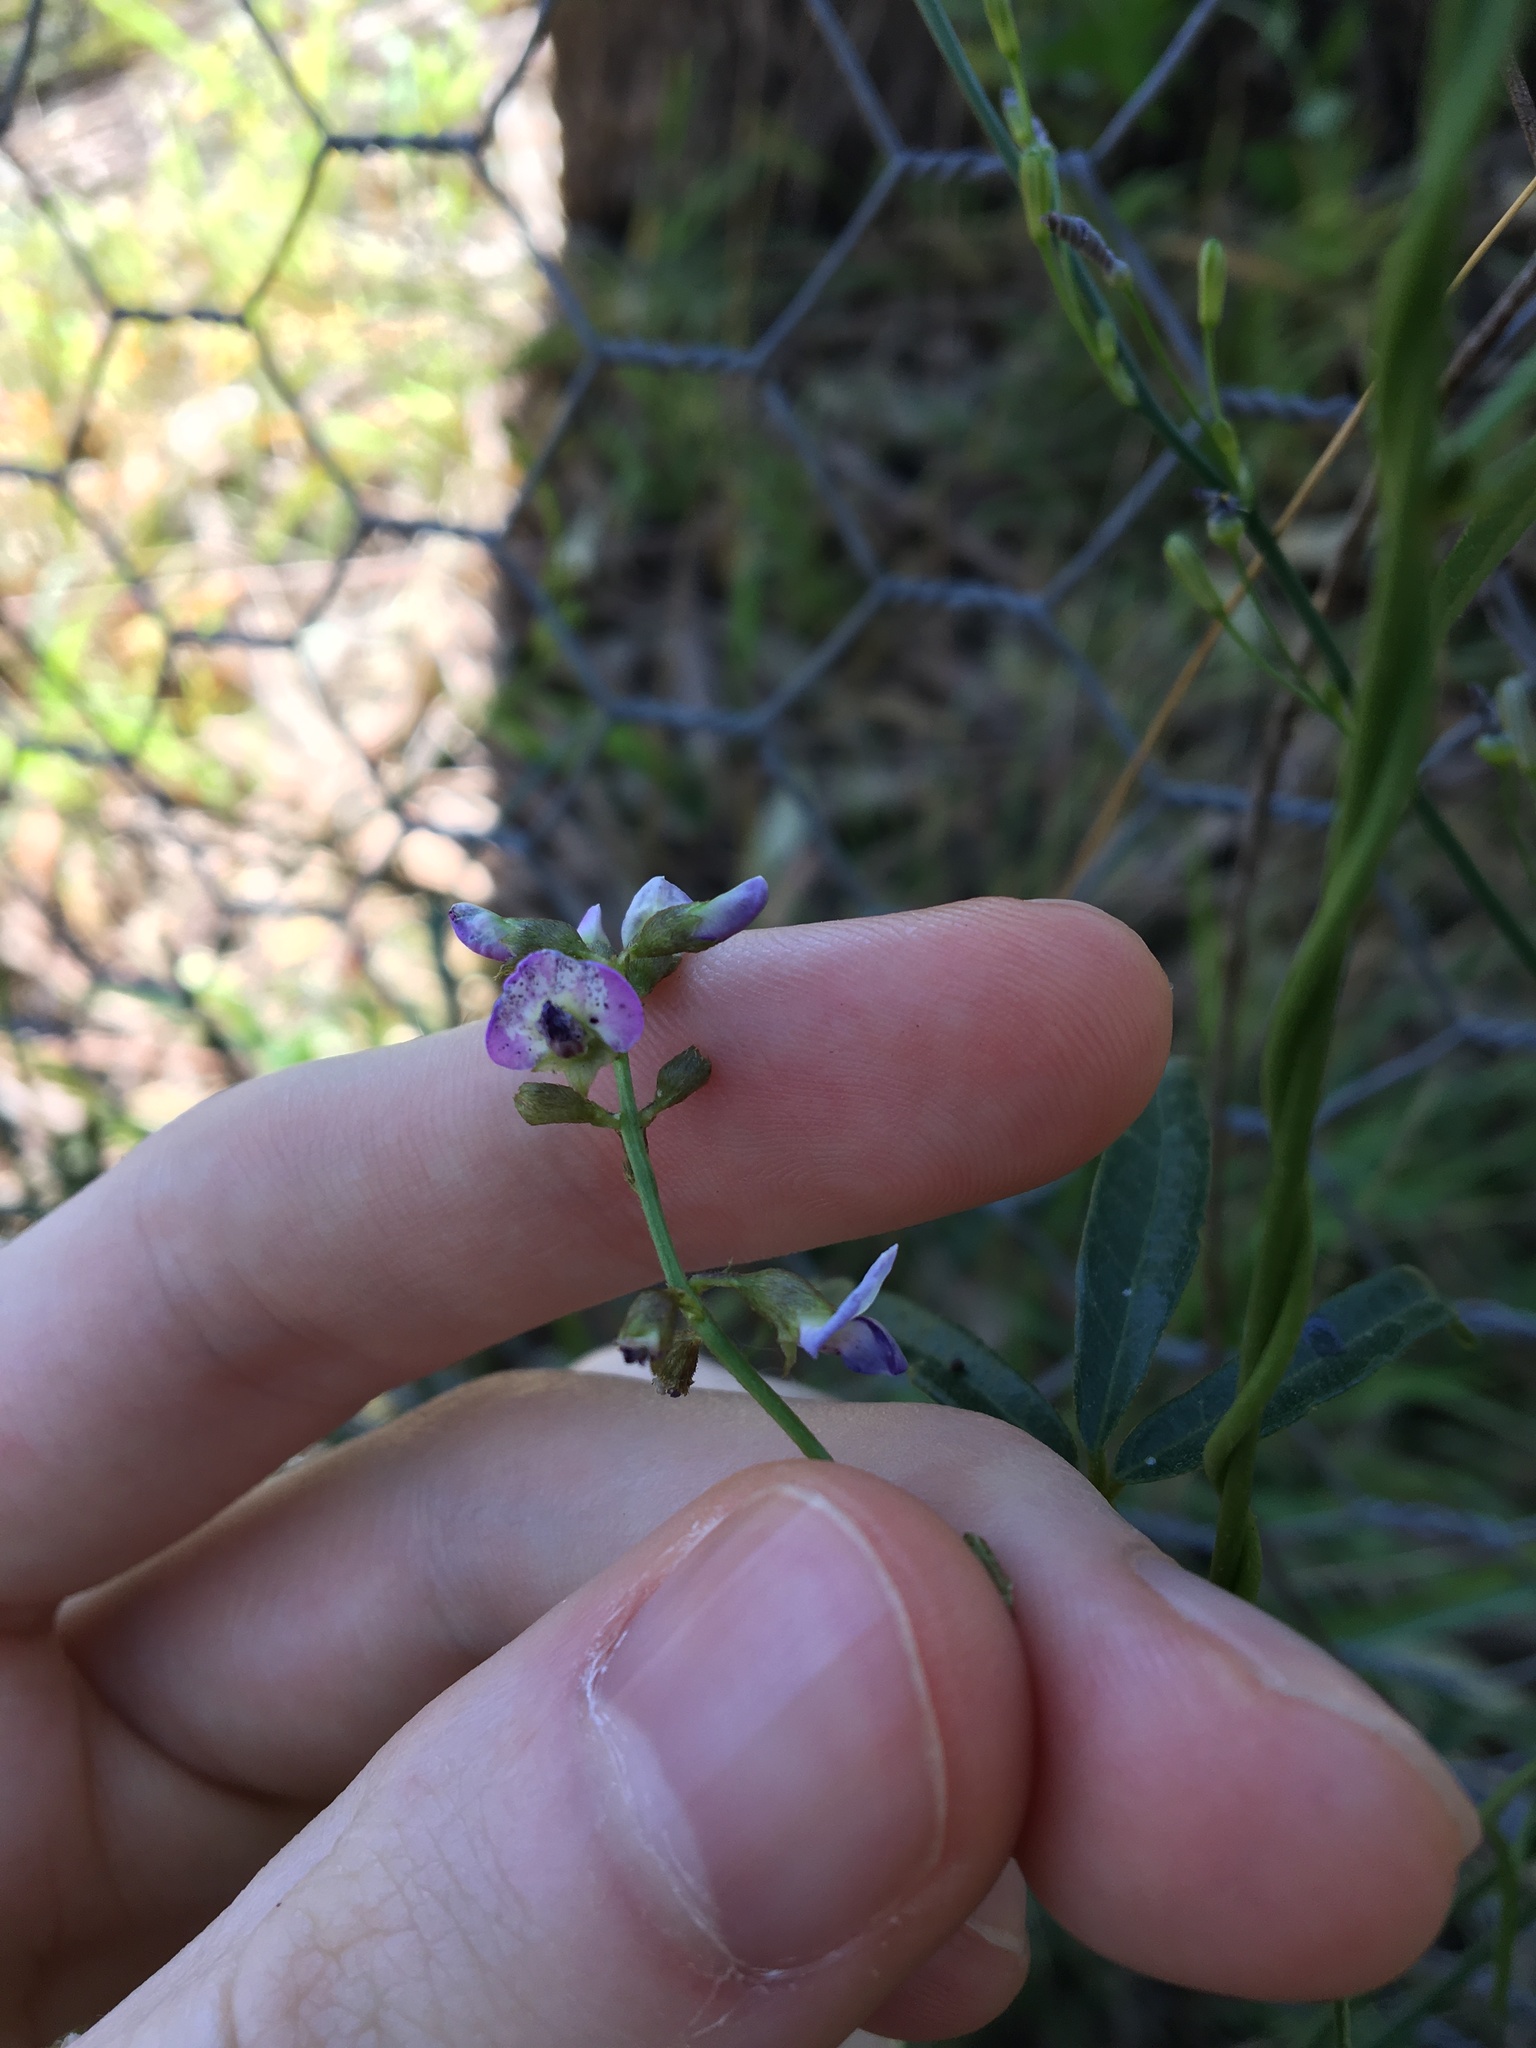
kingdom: Plantae
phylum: Tracheophyta
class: Magnoliopsida
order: Fabales
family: Fabaceae
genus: Glycine
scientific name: Glycine clandestina
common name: Twining glycine
